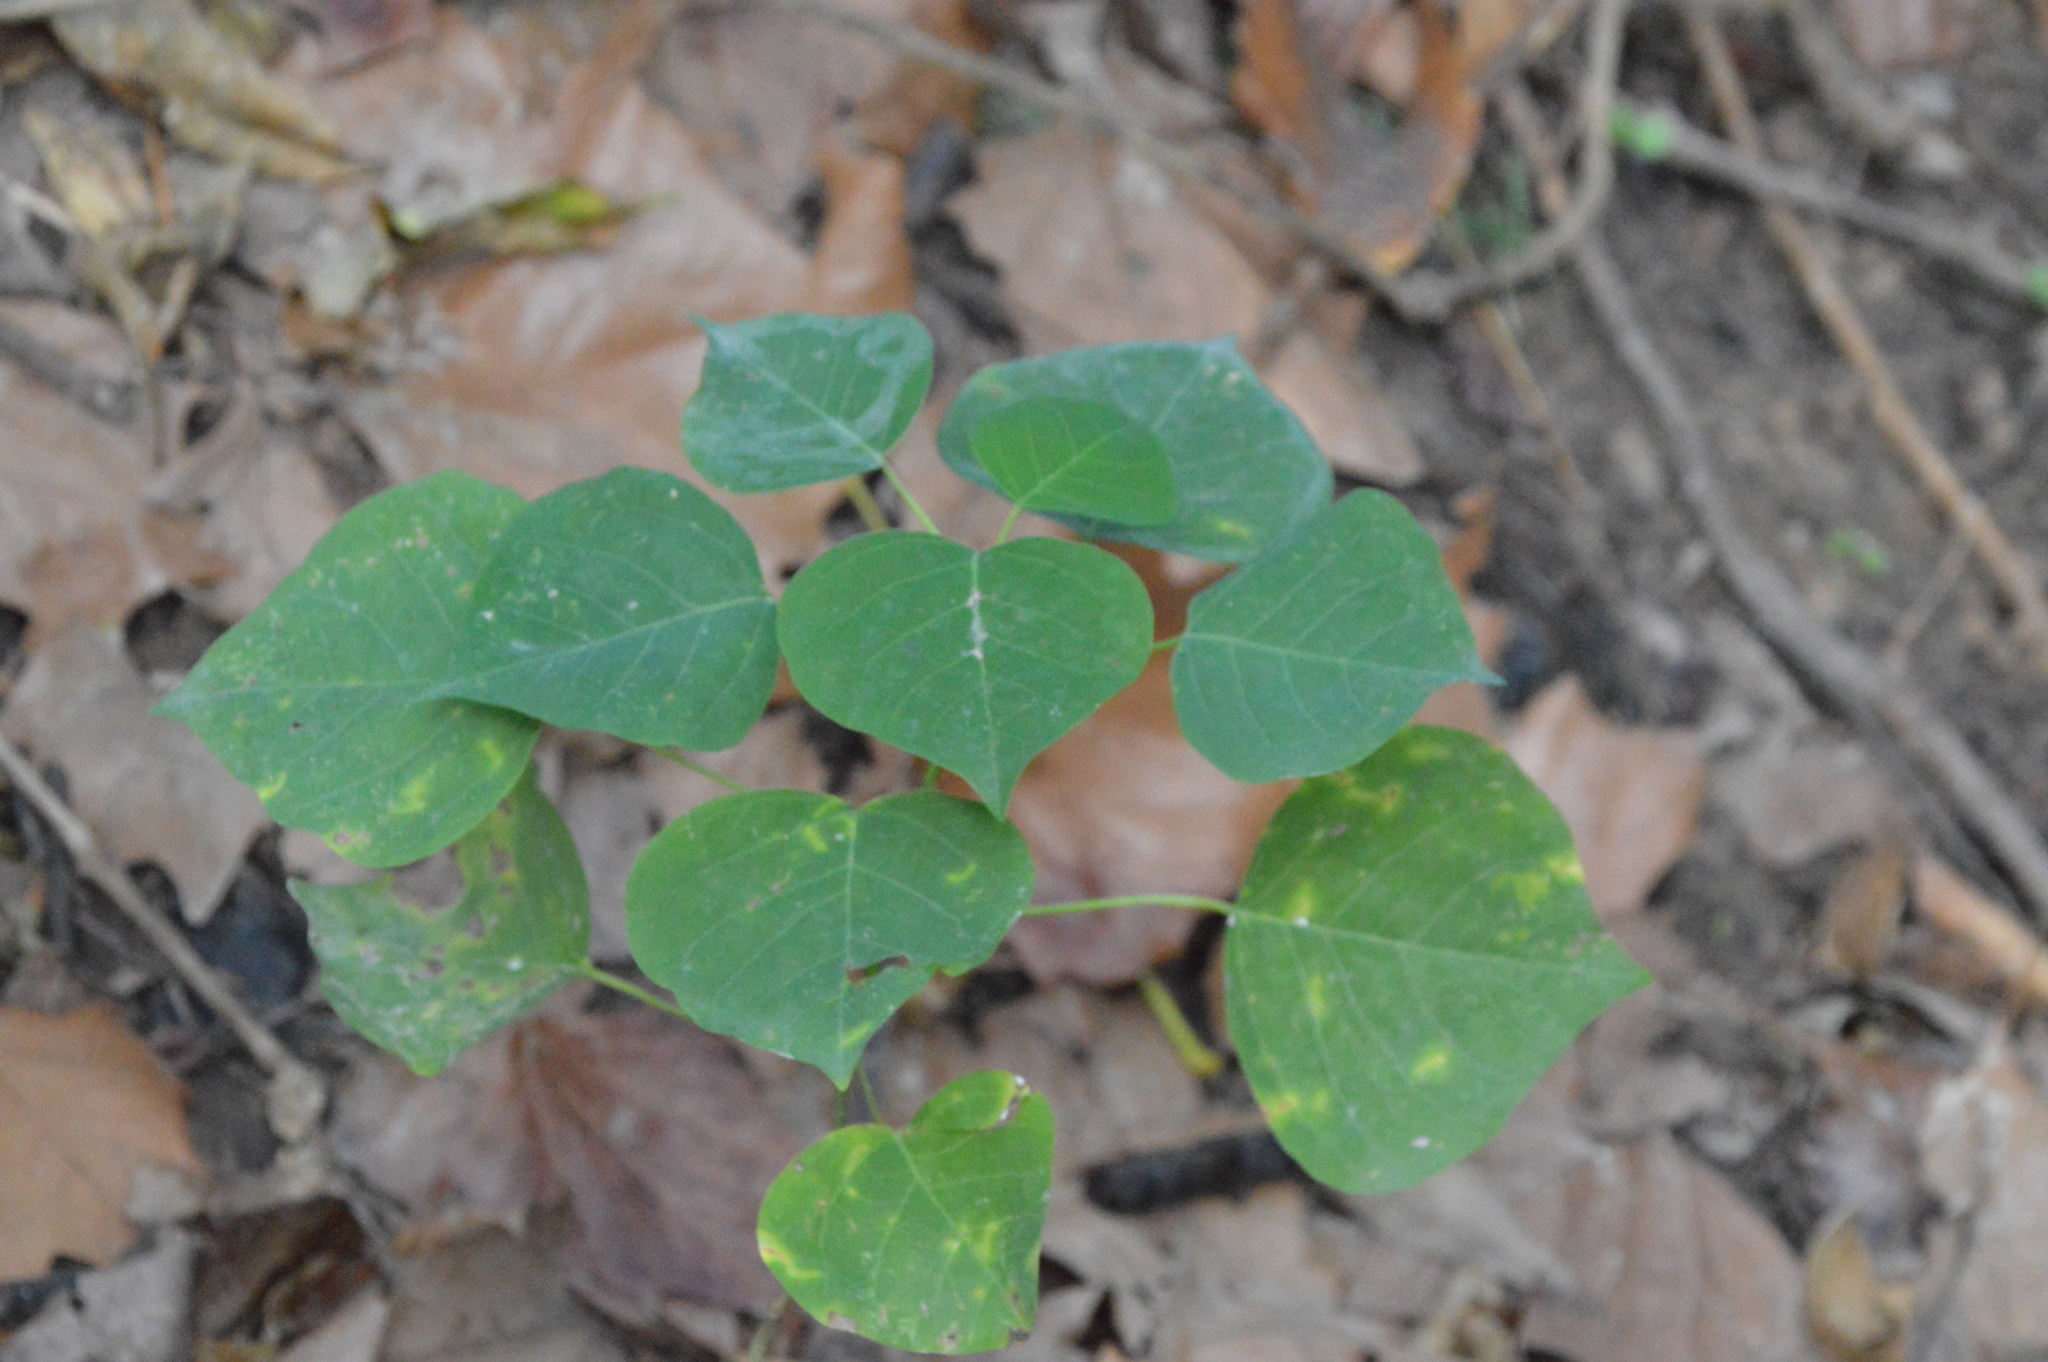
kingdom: Plantae
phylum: Tracheophyta
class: Magnoliopsida
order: Malpighiales
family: Euphorbiaceae
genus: Triadica
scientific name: Triadica sebifera
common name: Chinese tallow
